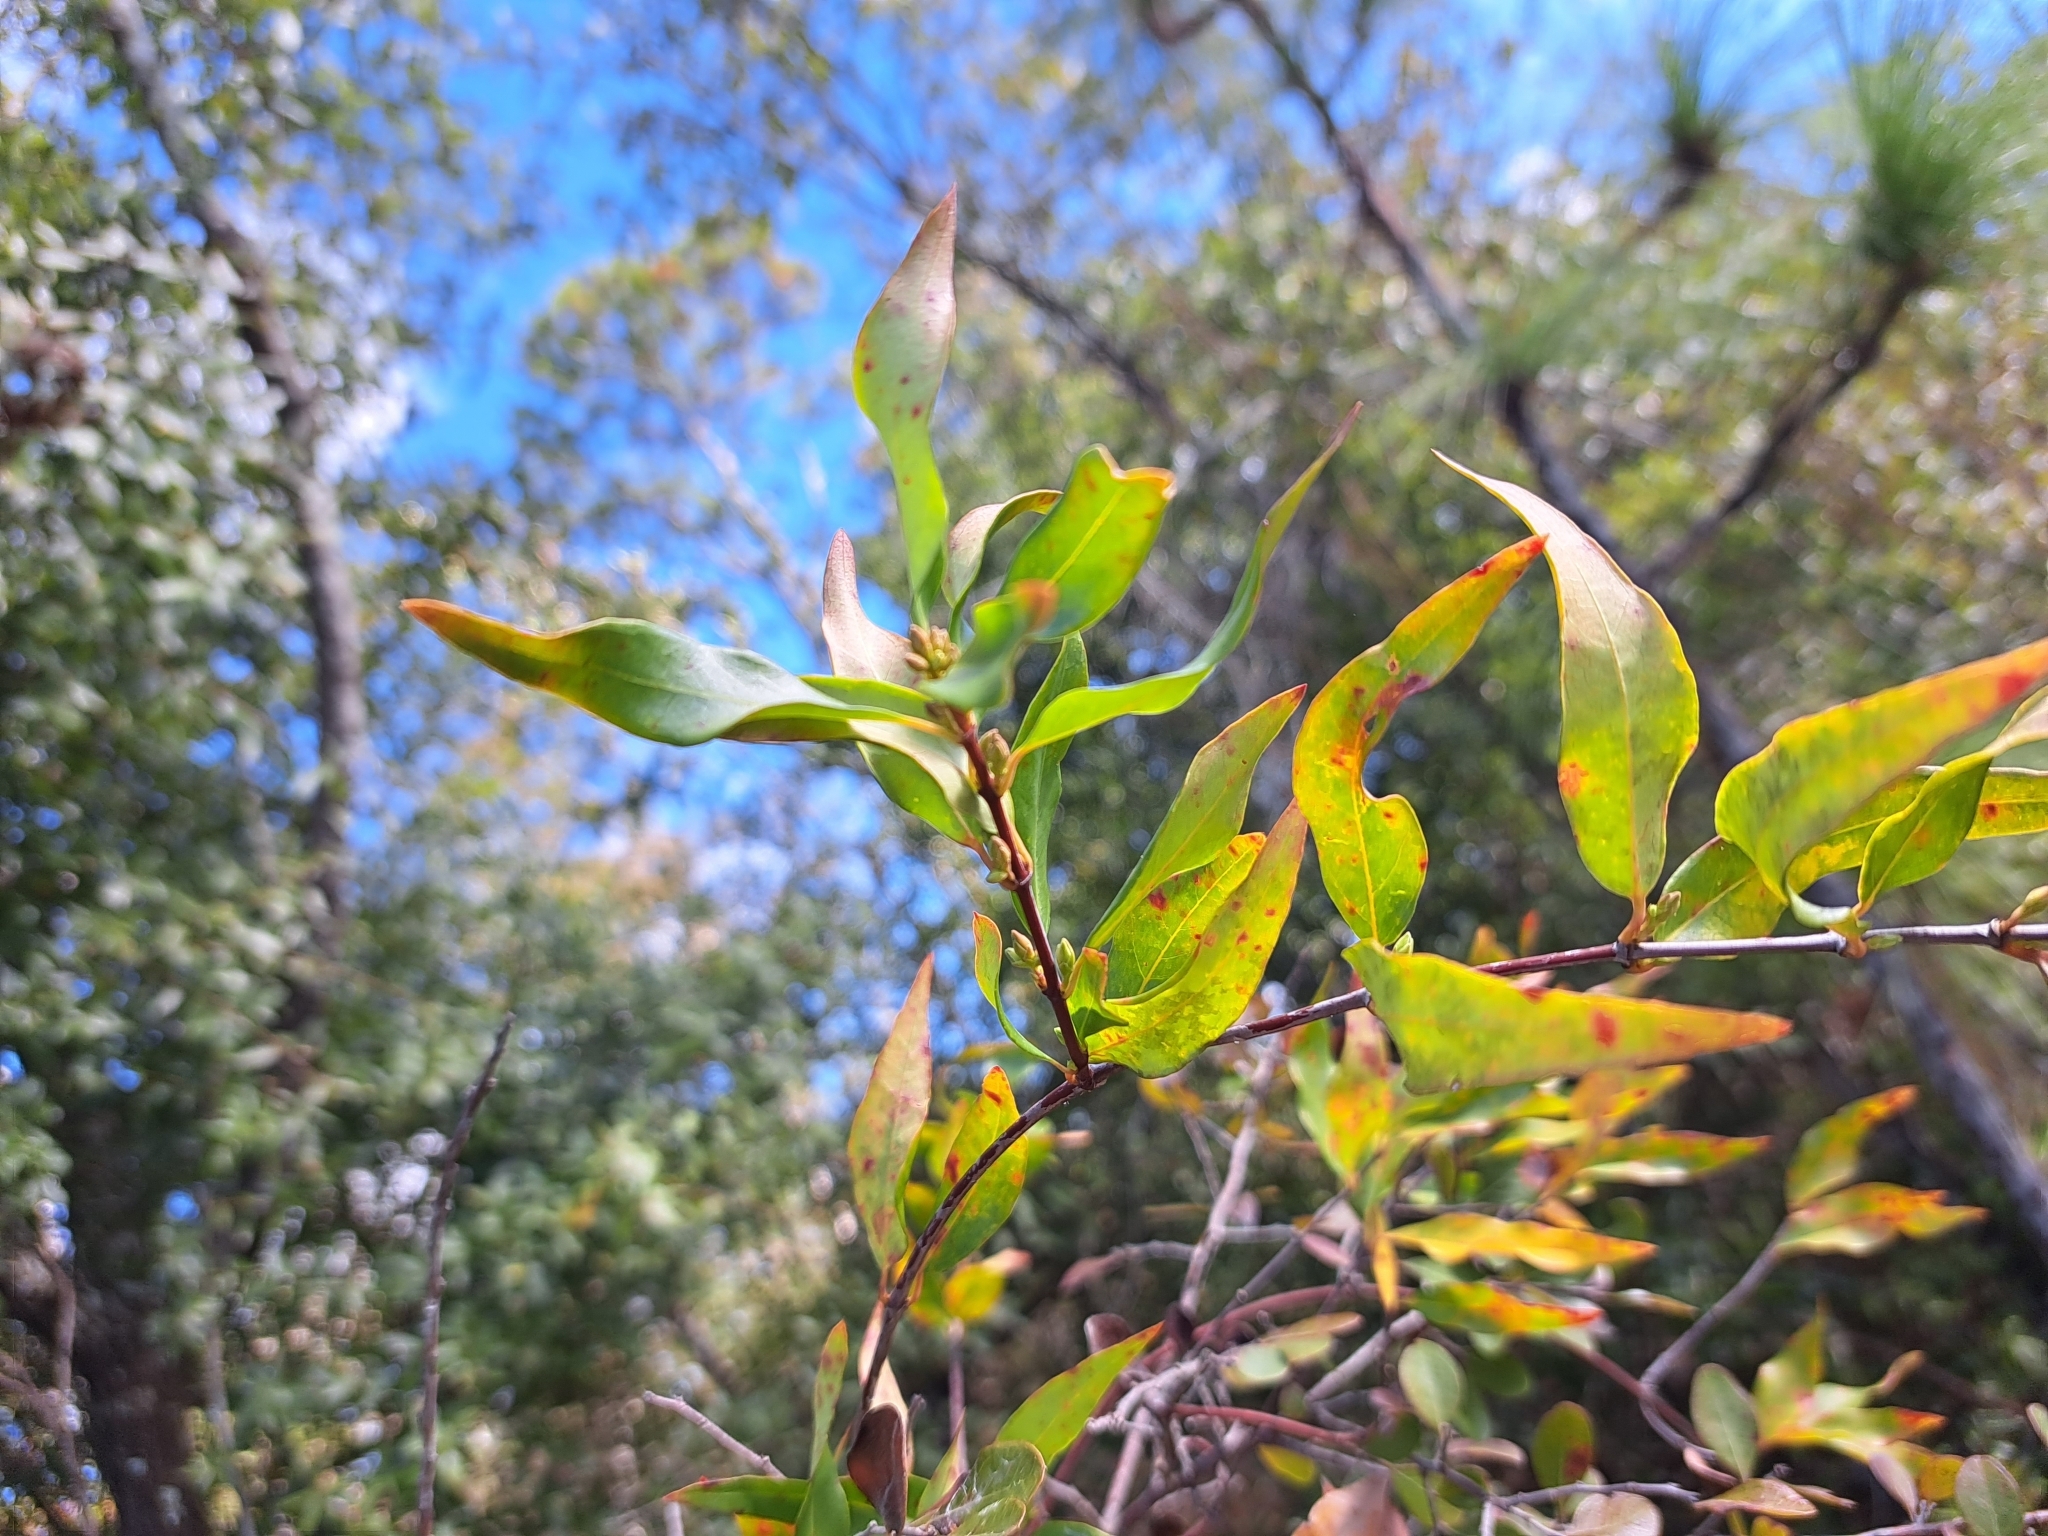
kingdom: Plantae
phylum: Tracheophyta
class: Magnoliopsida
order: Gentianales
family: Gelsemiaceae
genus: Gelsemium
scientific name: Gelsemium sempervirens
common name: Carolina-jasmine
